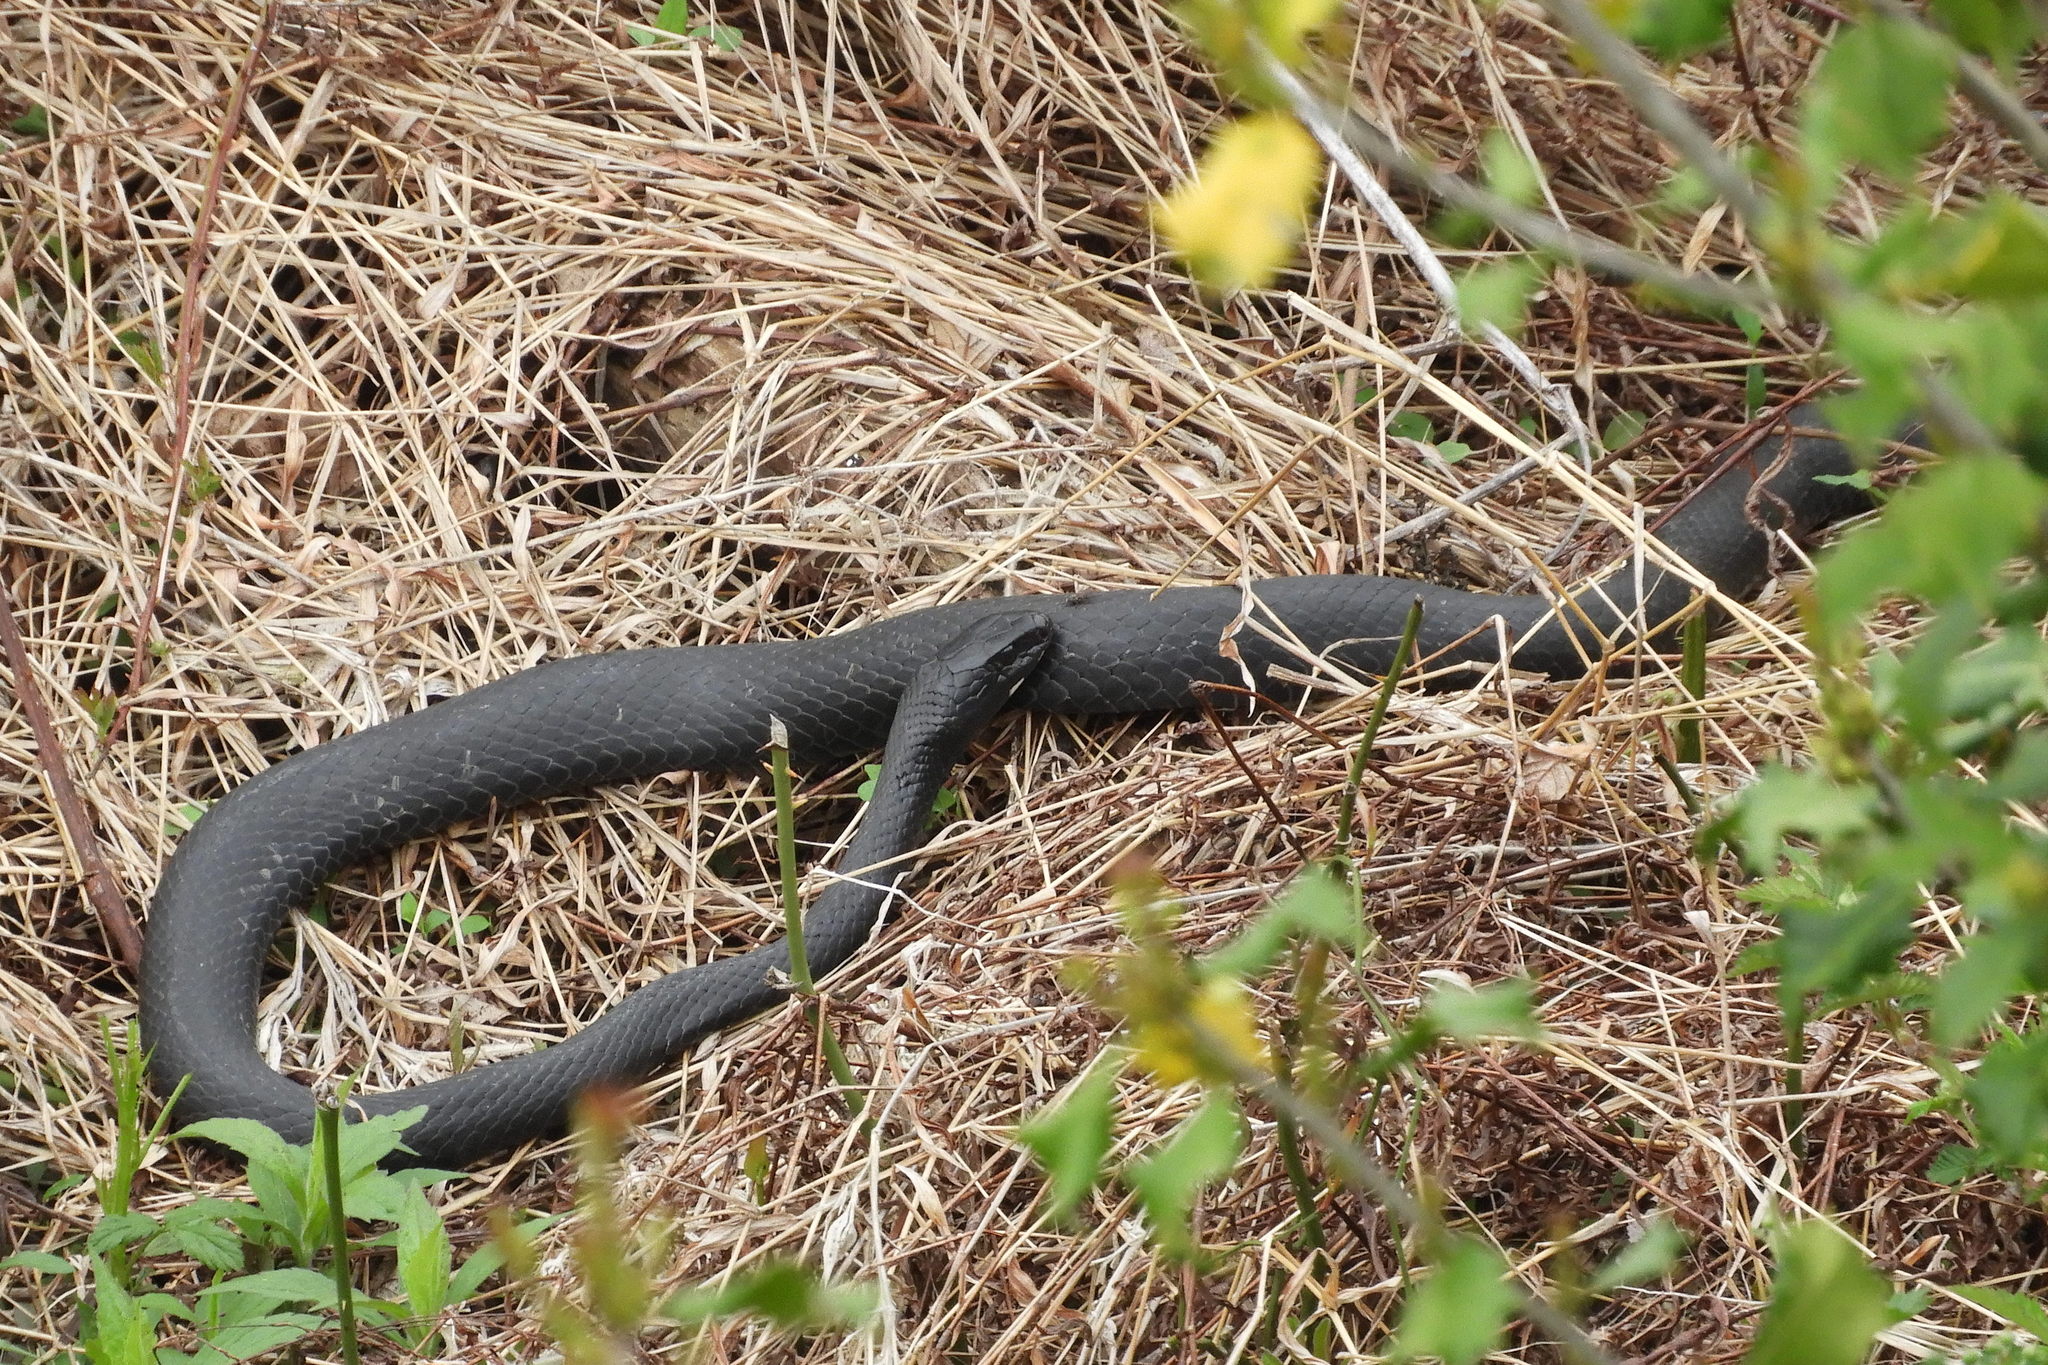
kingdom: Animalia
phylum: Chordata
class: Squamata
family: Colubridae
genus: Coluber
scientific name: Coluber constrictor
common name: Eastern racer
